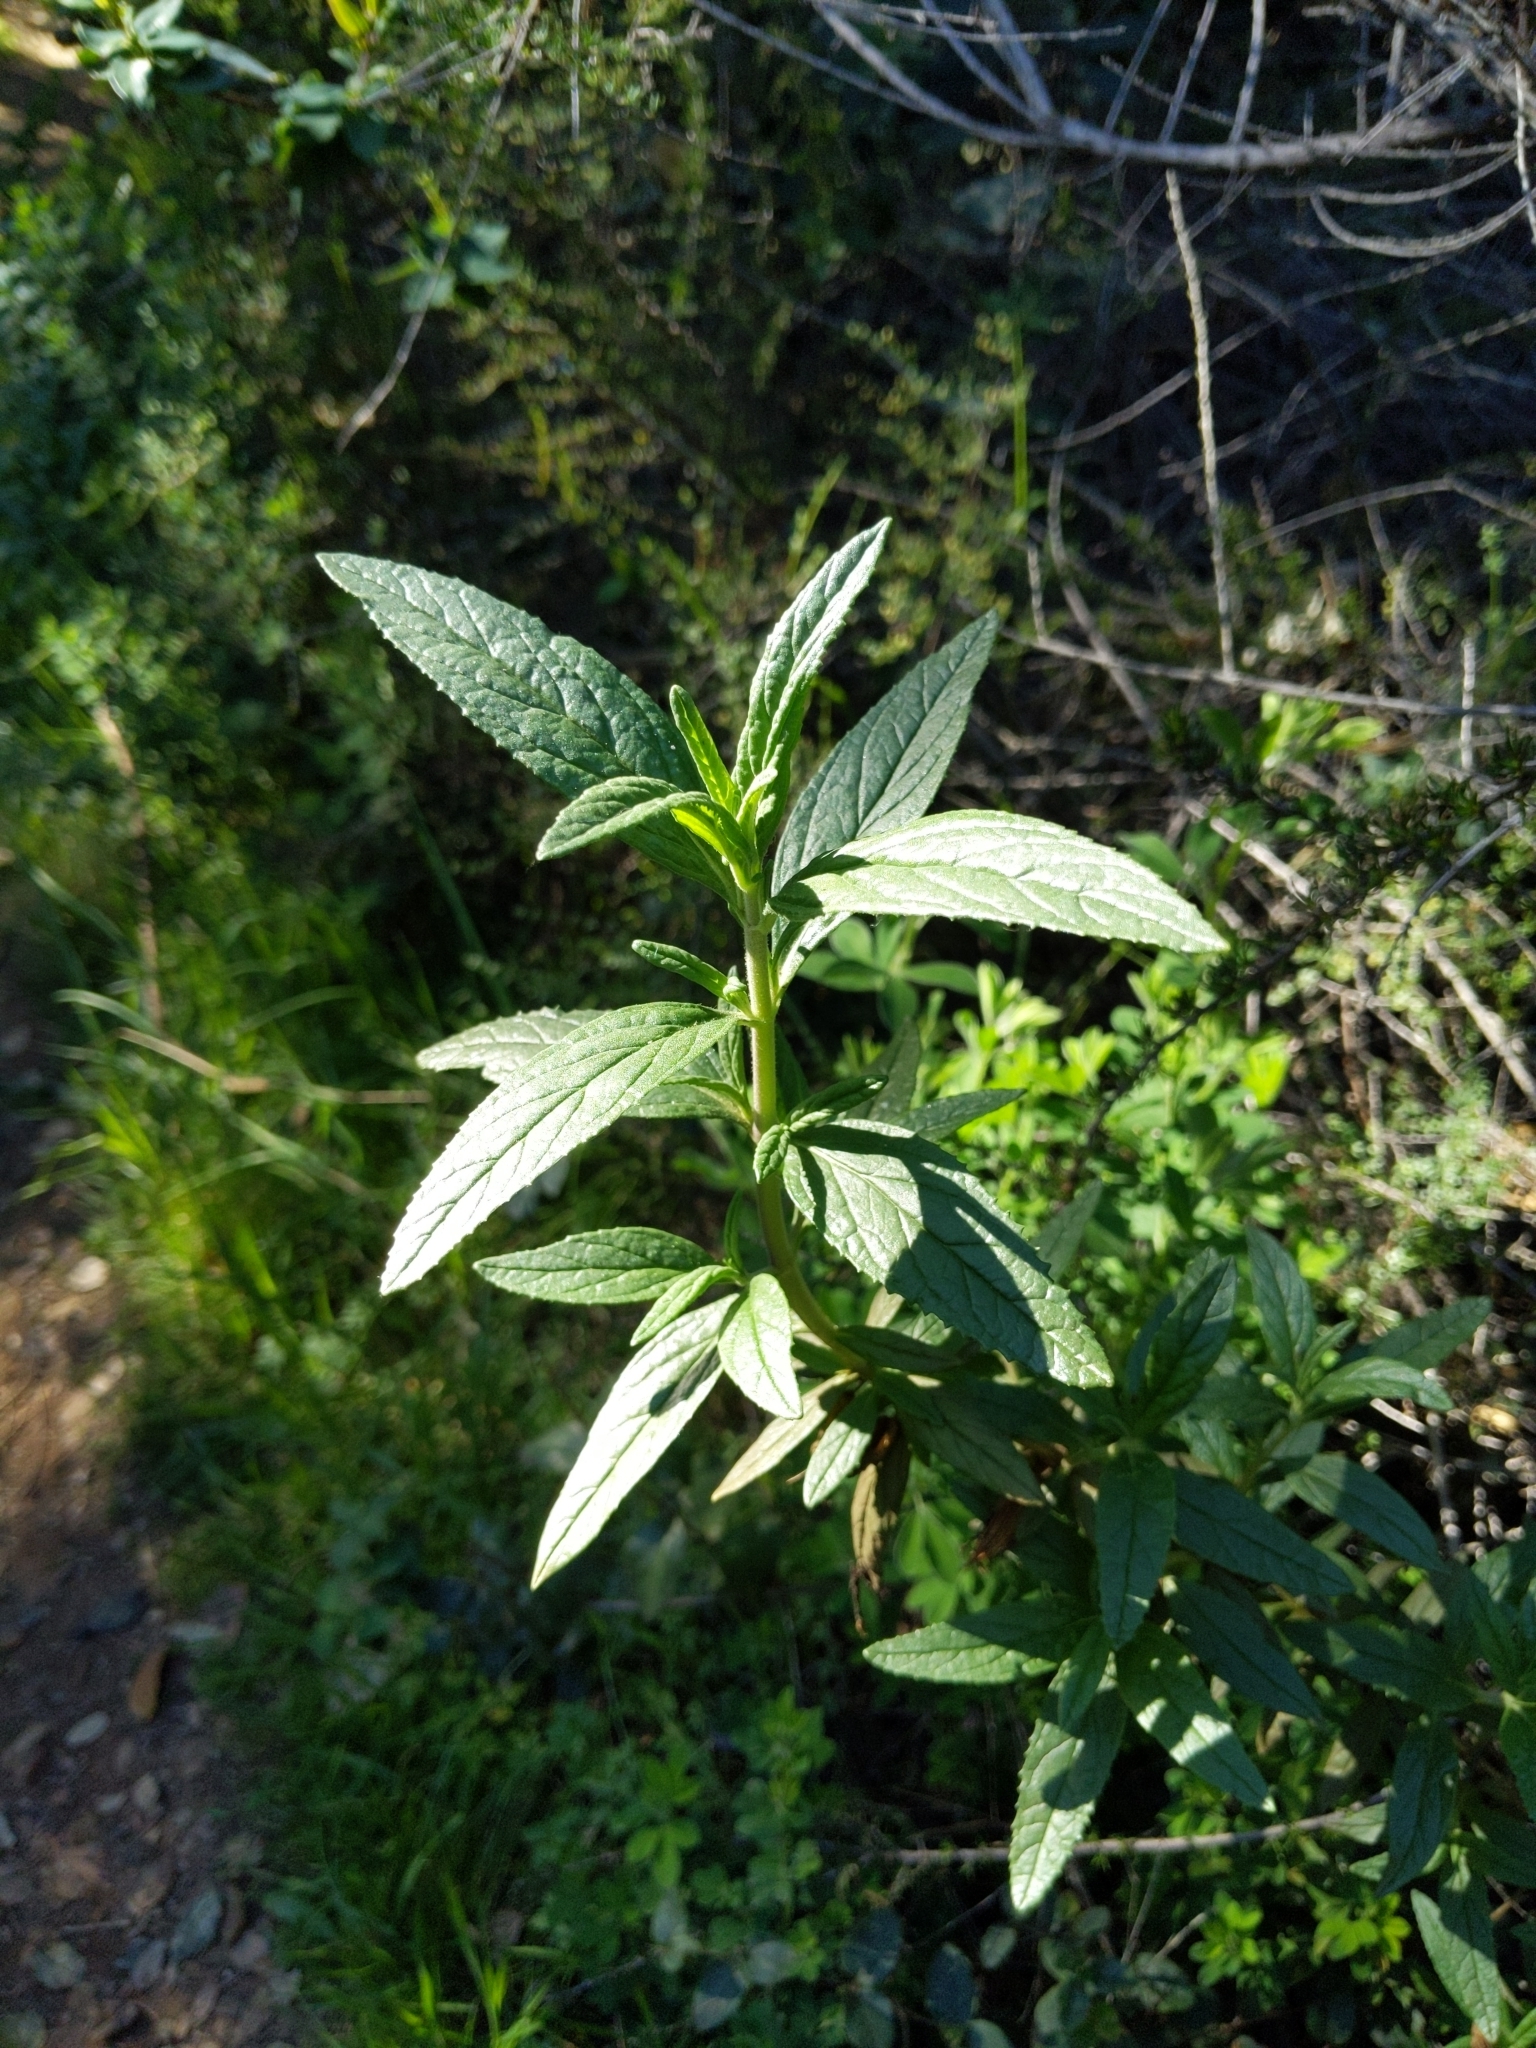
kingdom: Plantae
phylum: Tracheophyta
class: Magnoliopsida
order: Lamiales
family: Phrymaceae
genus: Diplacus
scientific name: Diplacus aurantiacus
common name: Bush monkey-flower
